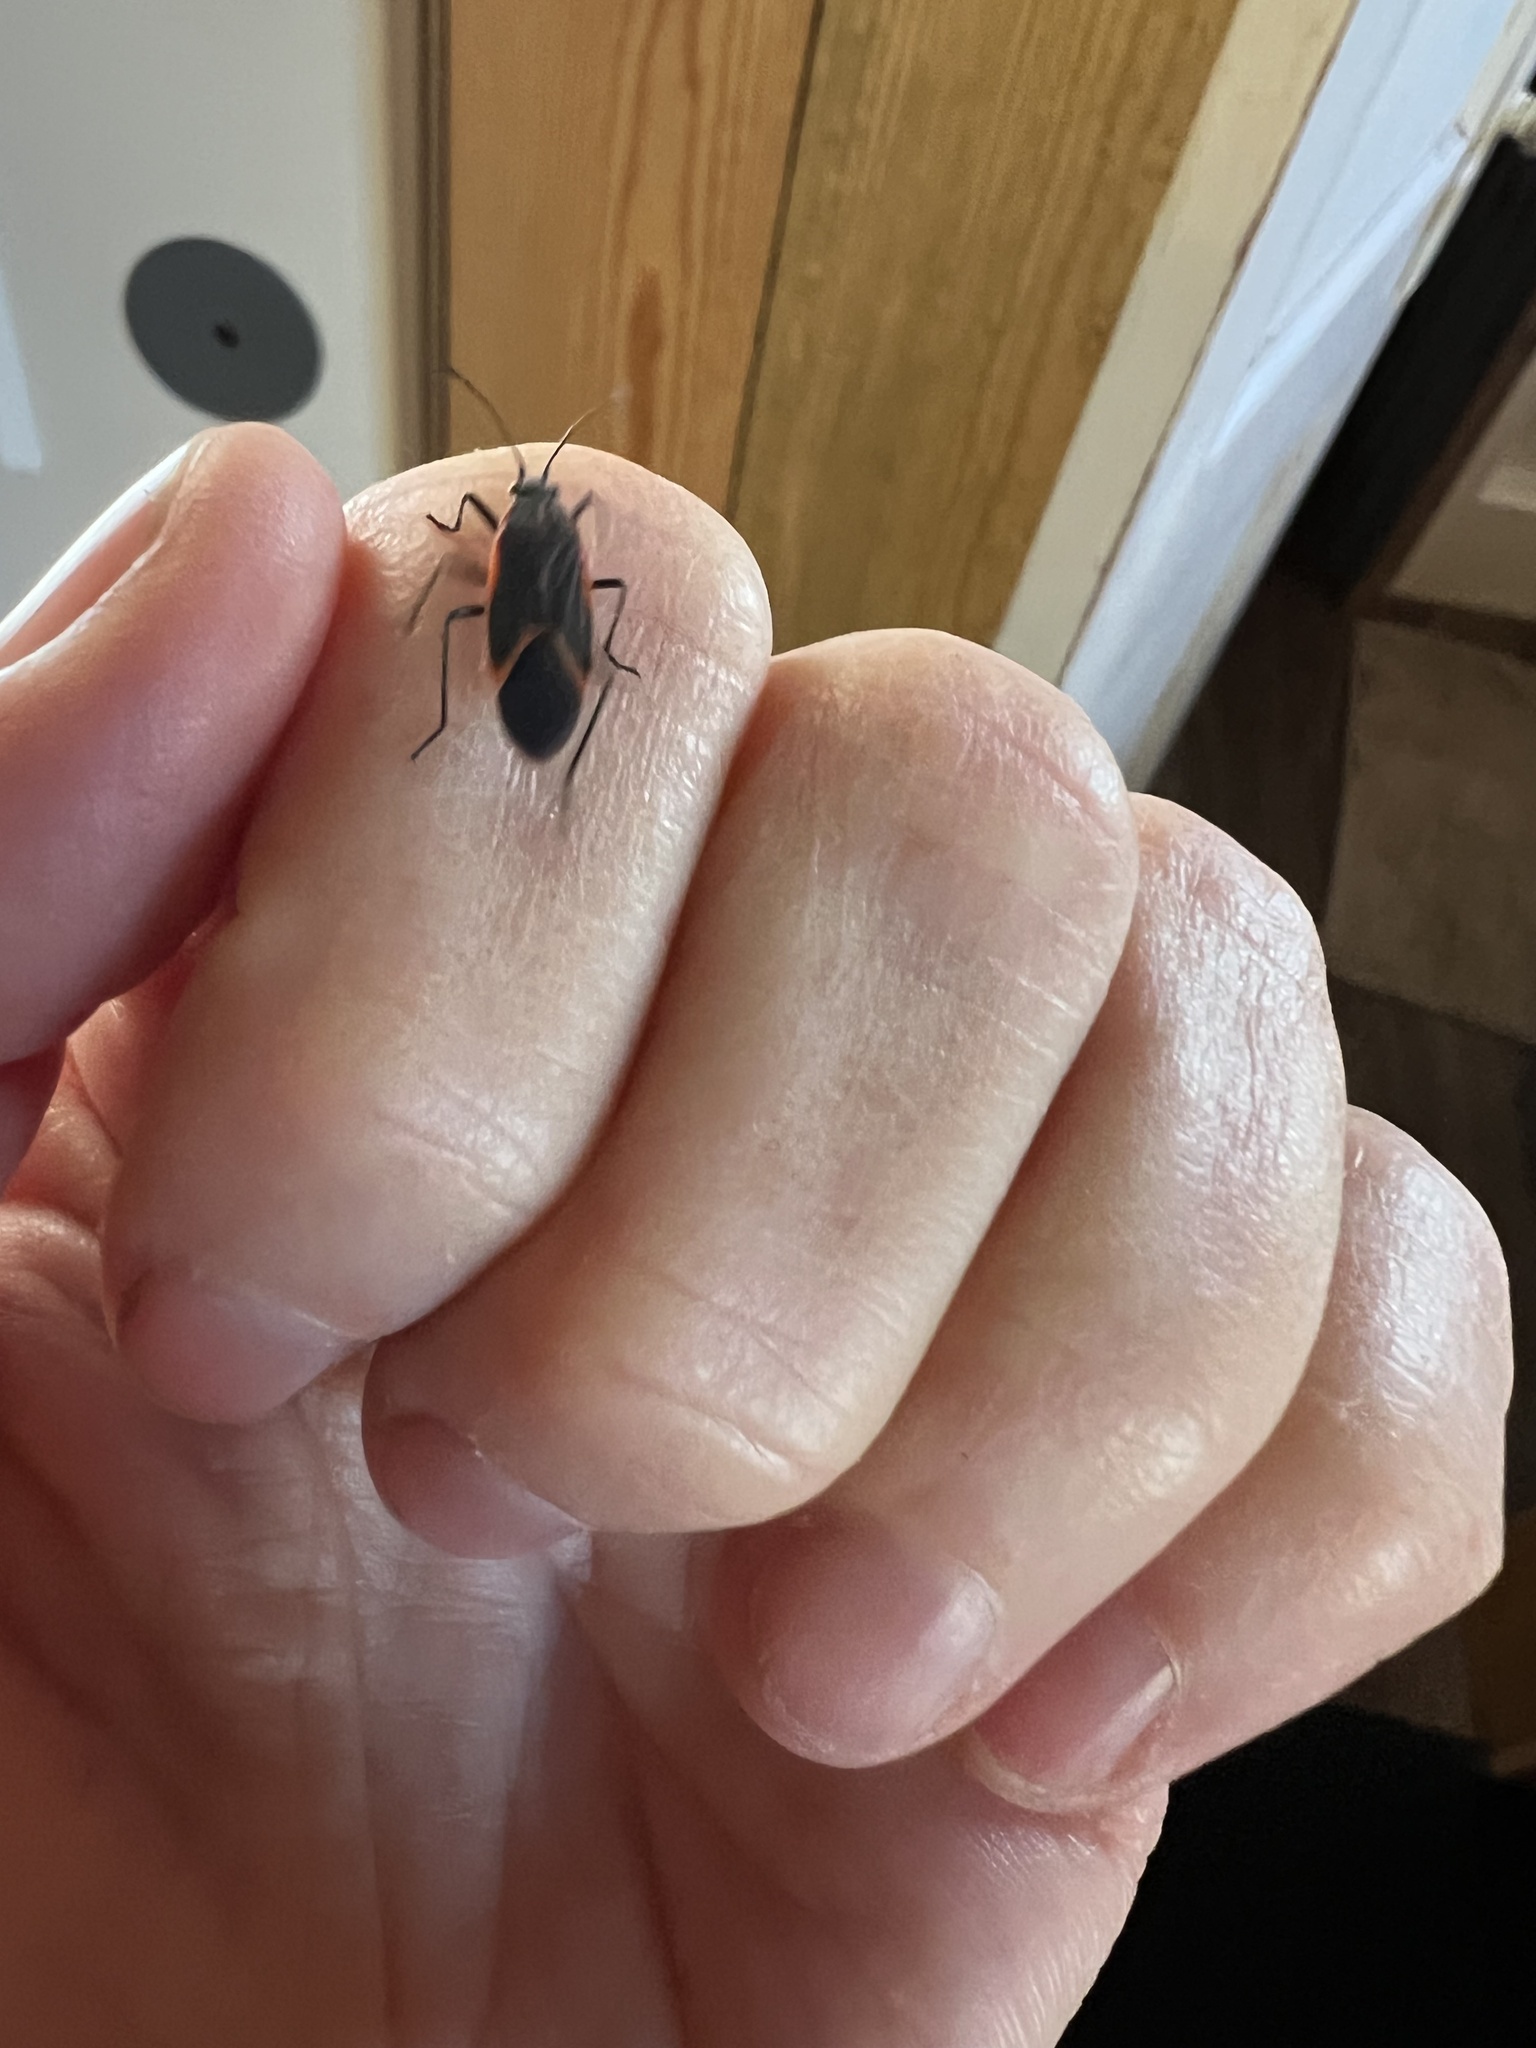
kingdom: Animalia
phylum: Arthropoda
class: Insecta
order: Hemiptera
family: Rhopalidae
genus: Boisea
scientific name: Boisea trivittata
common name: Boxelder bug
